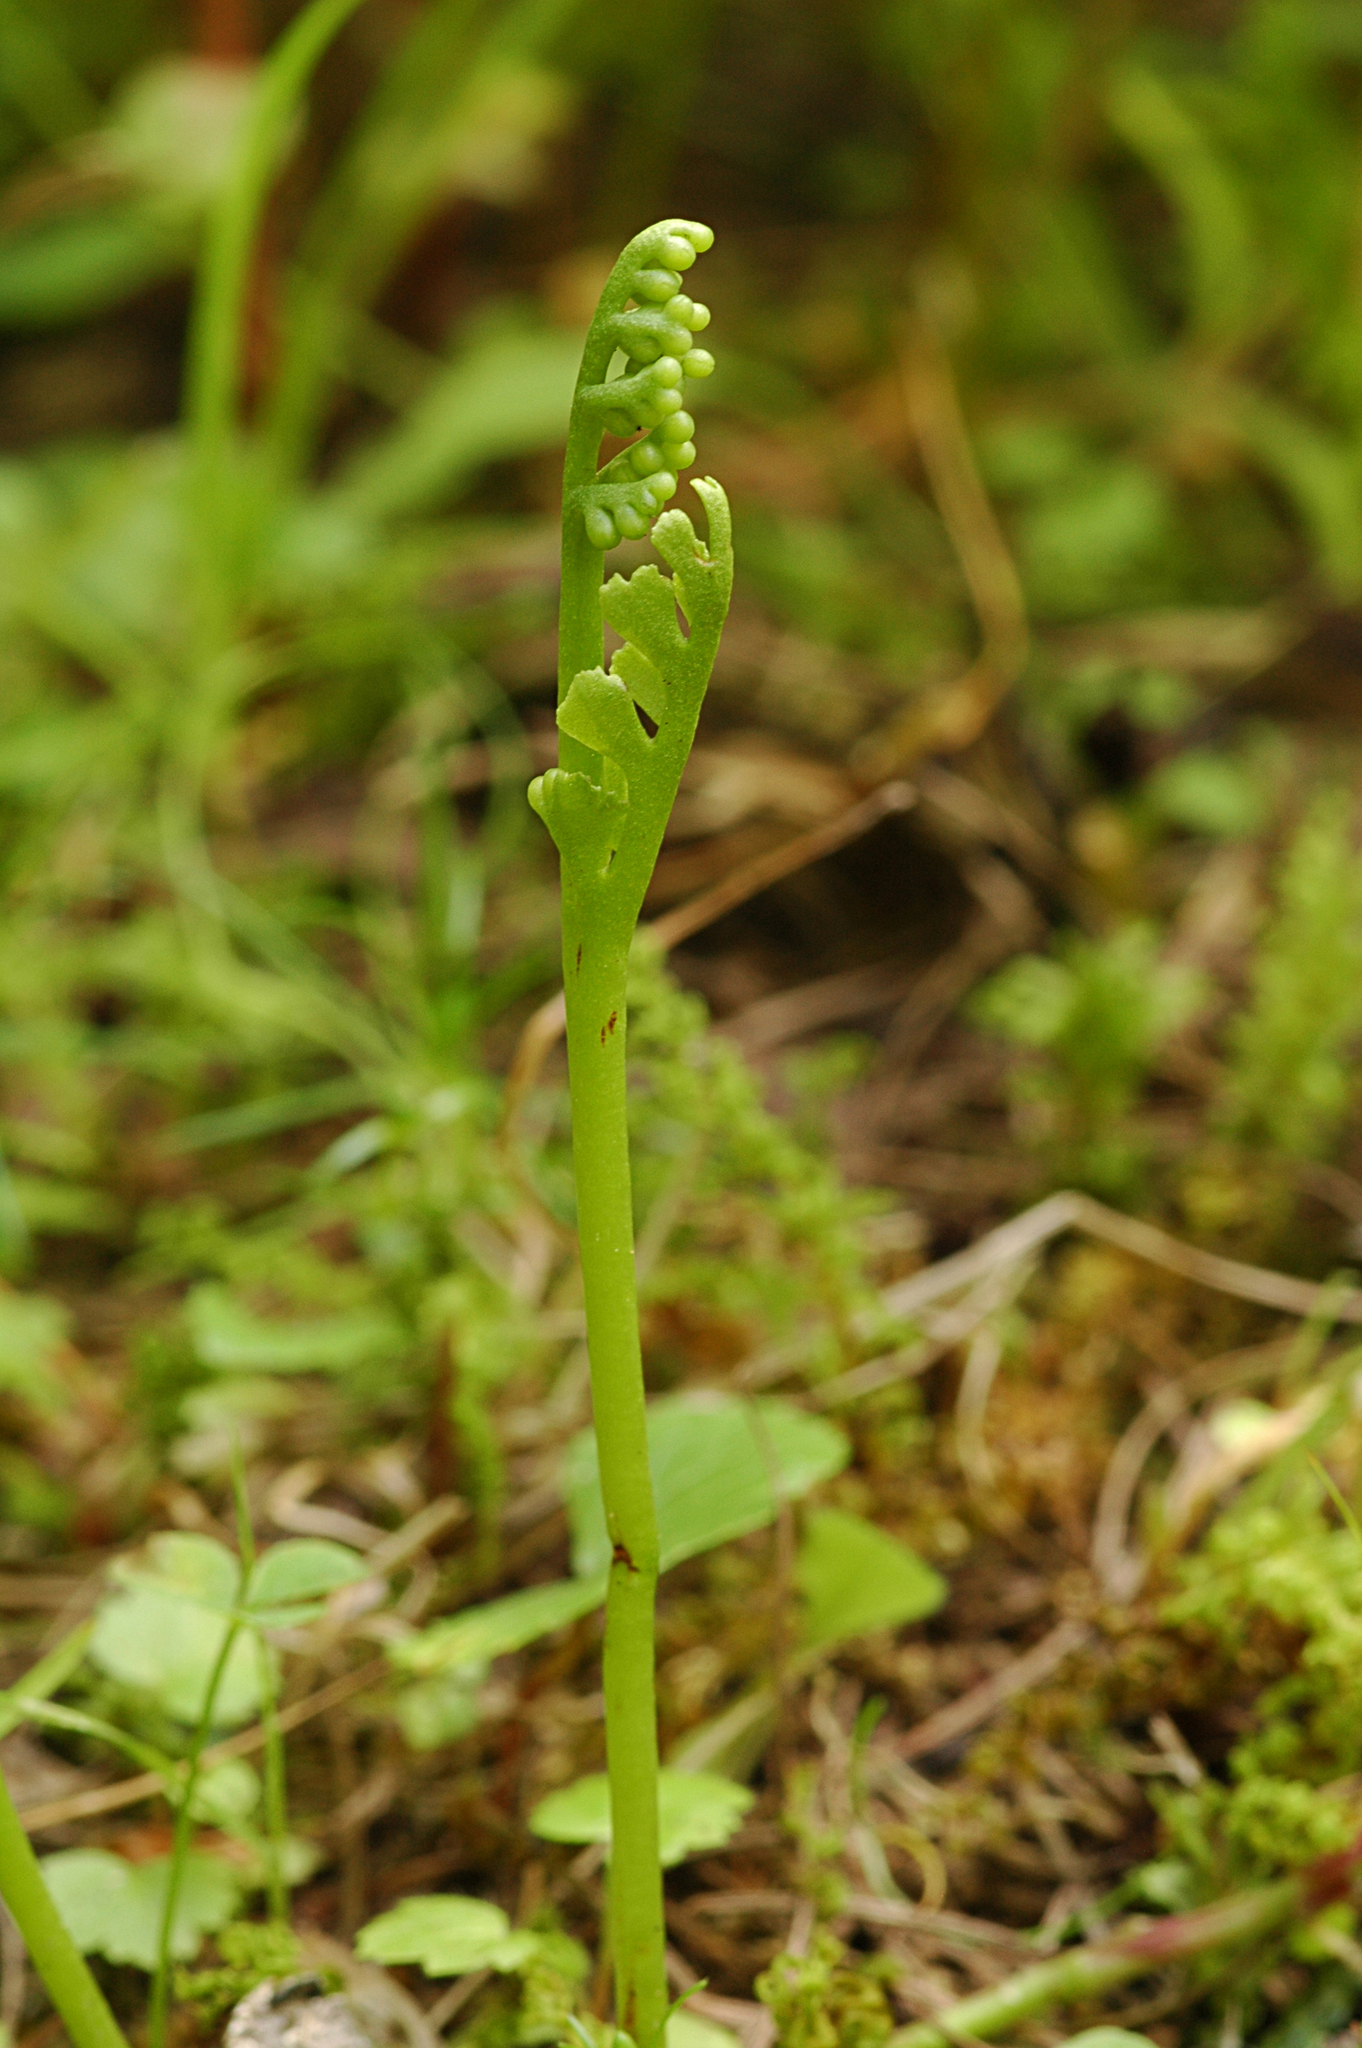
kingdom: Plantae
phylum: Tracheophyta
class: Polypodiopsida
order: Ophioglossales
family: Ophioglossaceae
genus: Botrychium
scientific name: Botrychium ascendens
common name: Ascending grapefern
